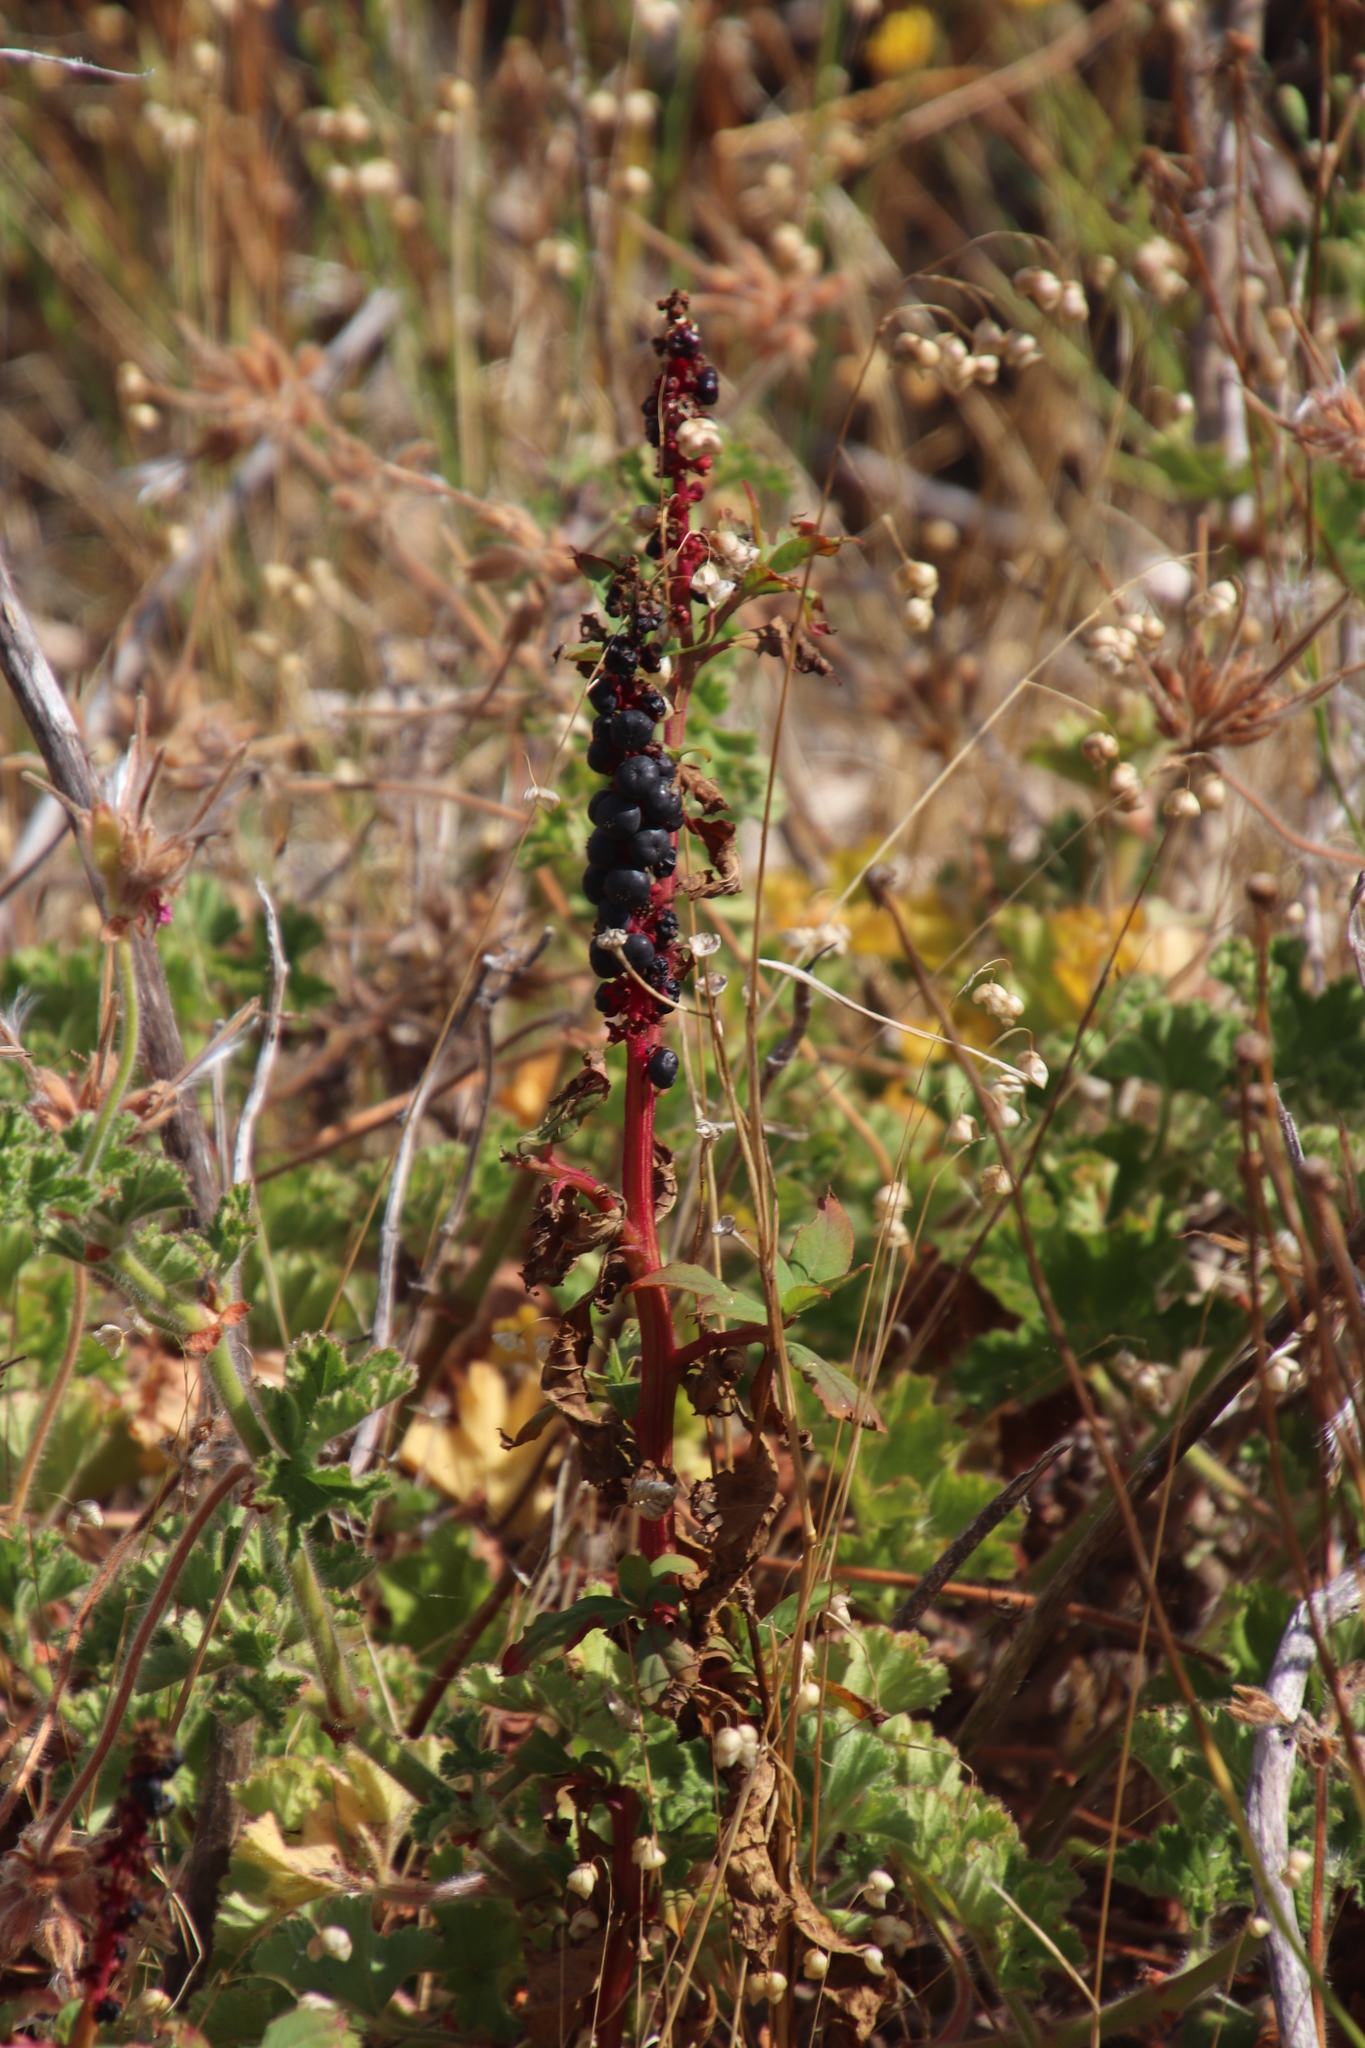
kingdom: Plantae
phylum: Tracheophyta
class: Magnoliopsida
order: Caryophyllales
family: Phytolaccaceae
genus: Phytolacca
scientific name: Phytolacca icosandra
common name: Button pokeweed
